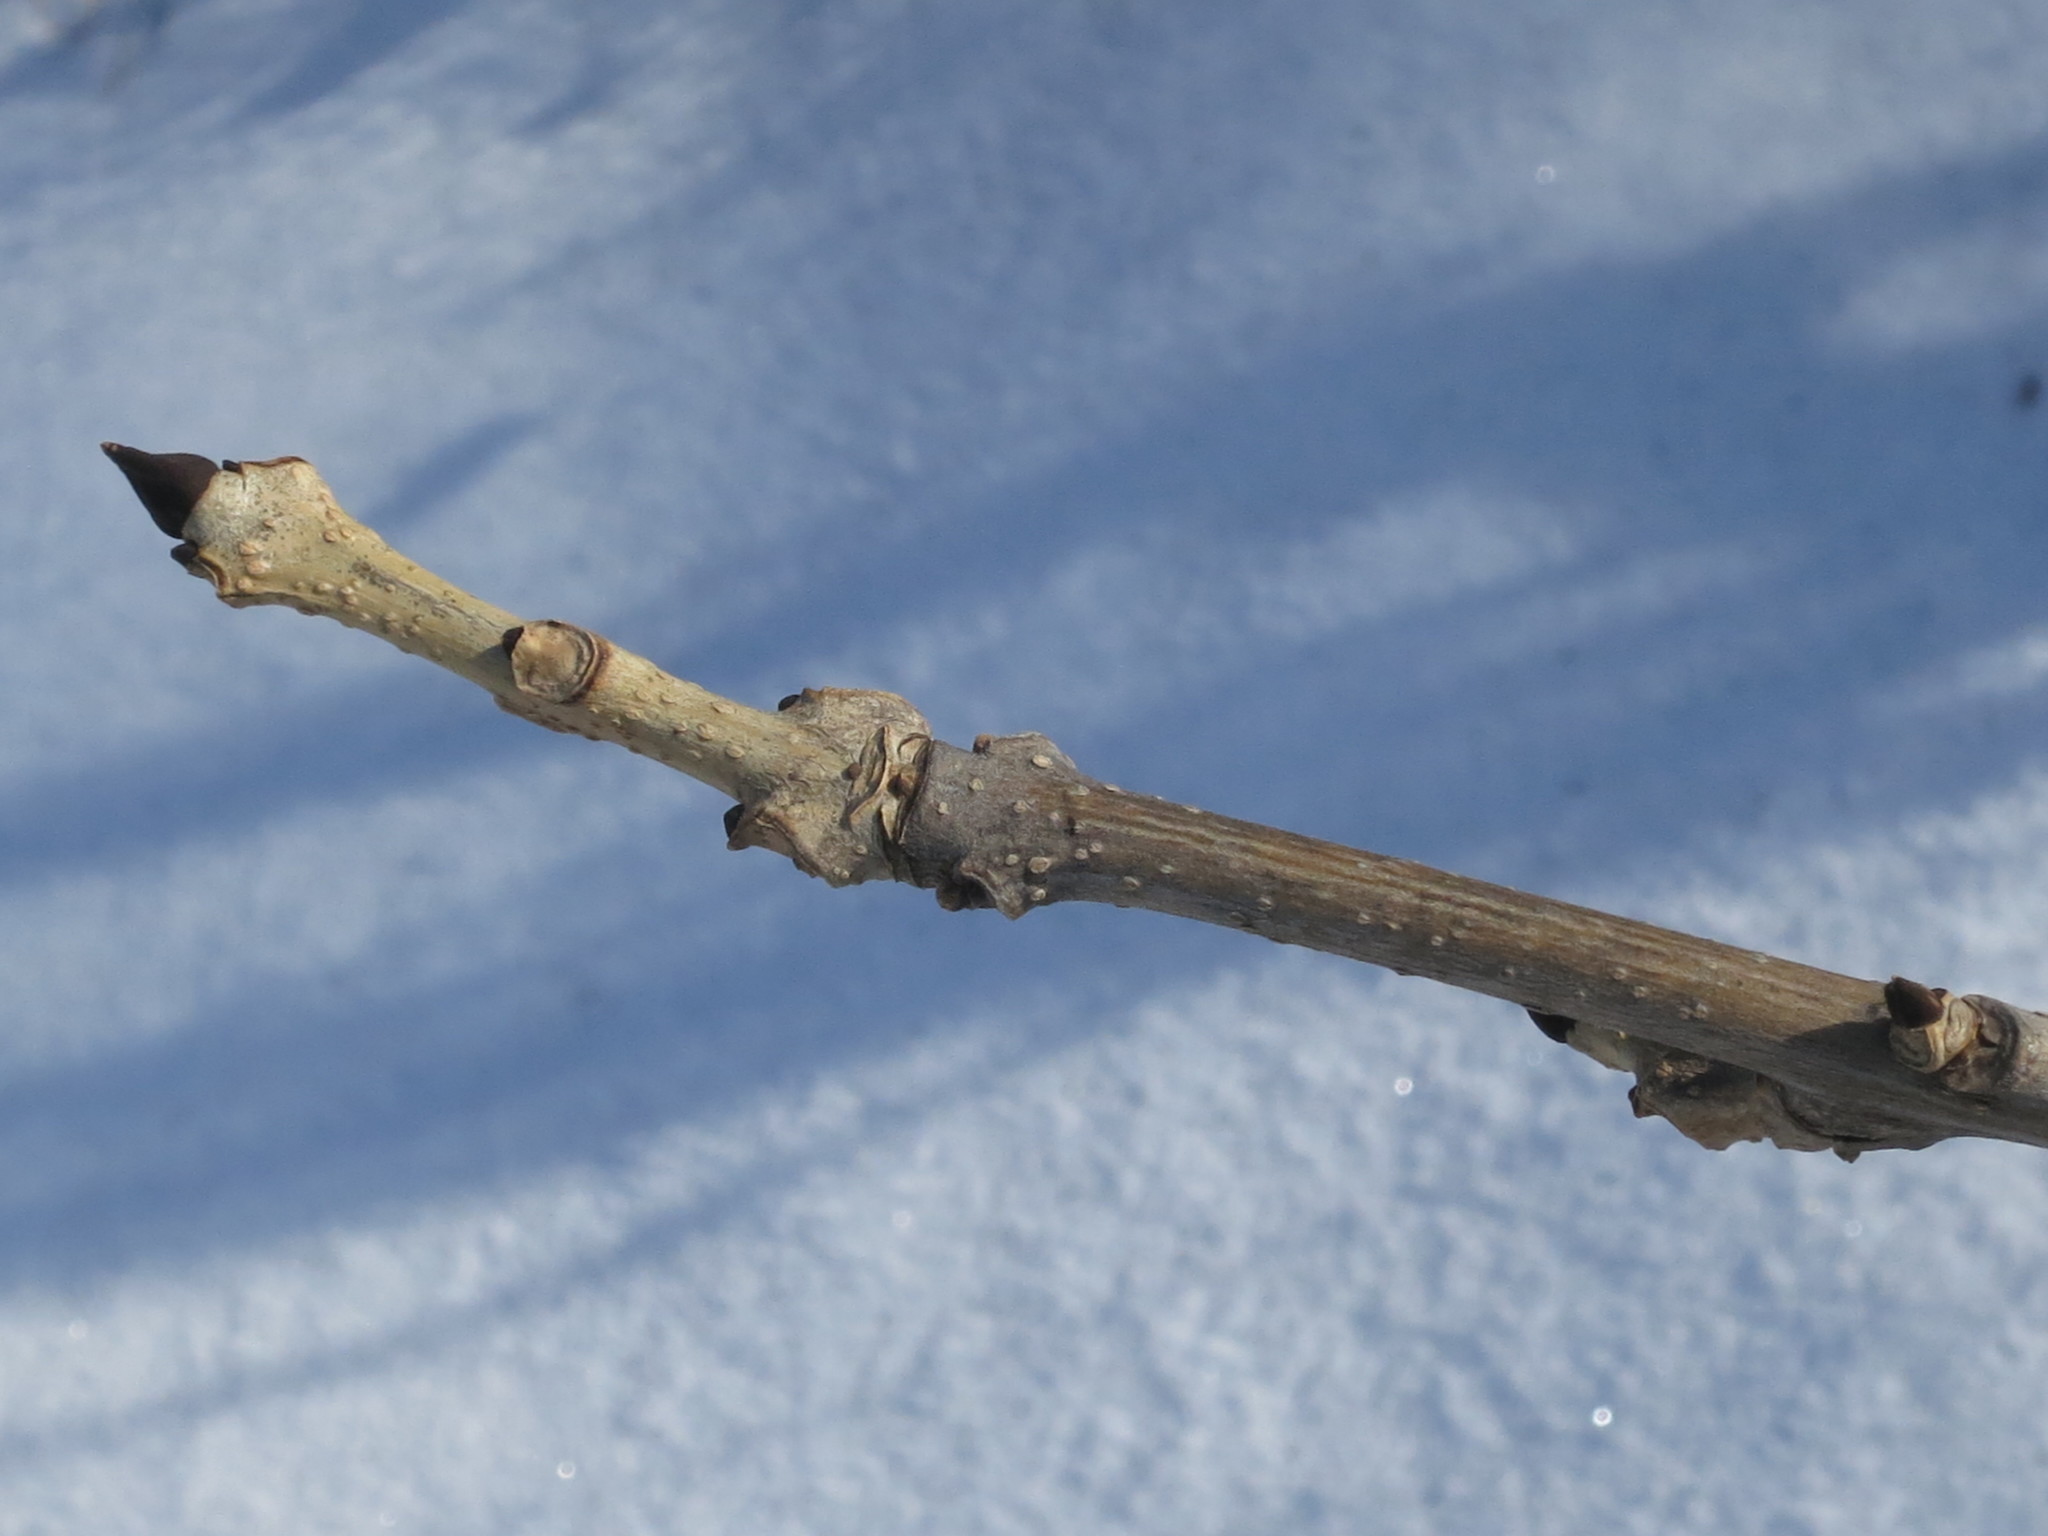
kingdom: Plantae
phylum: Tracheophyta
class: Magnoliopsida
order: Lamiales
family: Oleaceae
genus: Fraxinus
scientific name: Fraxinus mandshurica
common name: Manchurian ash
